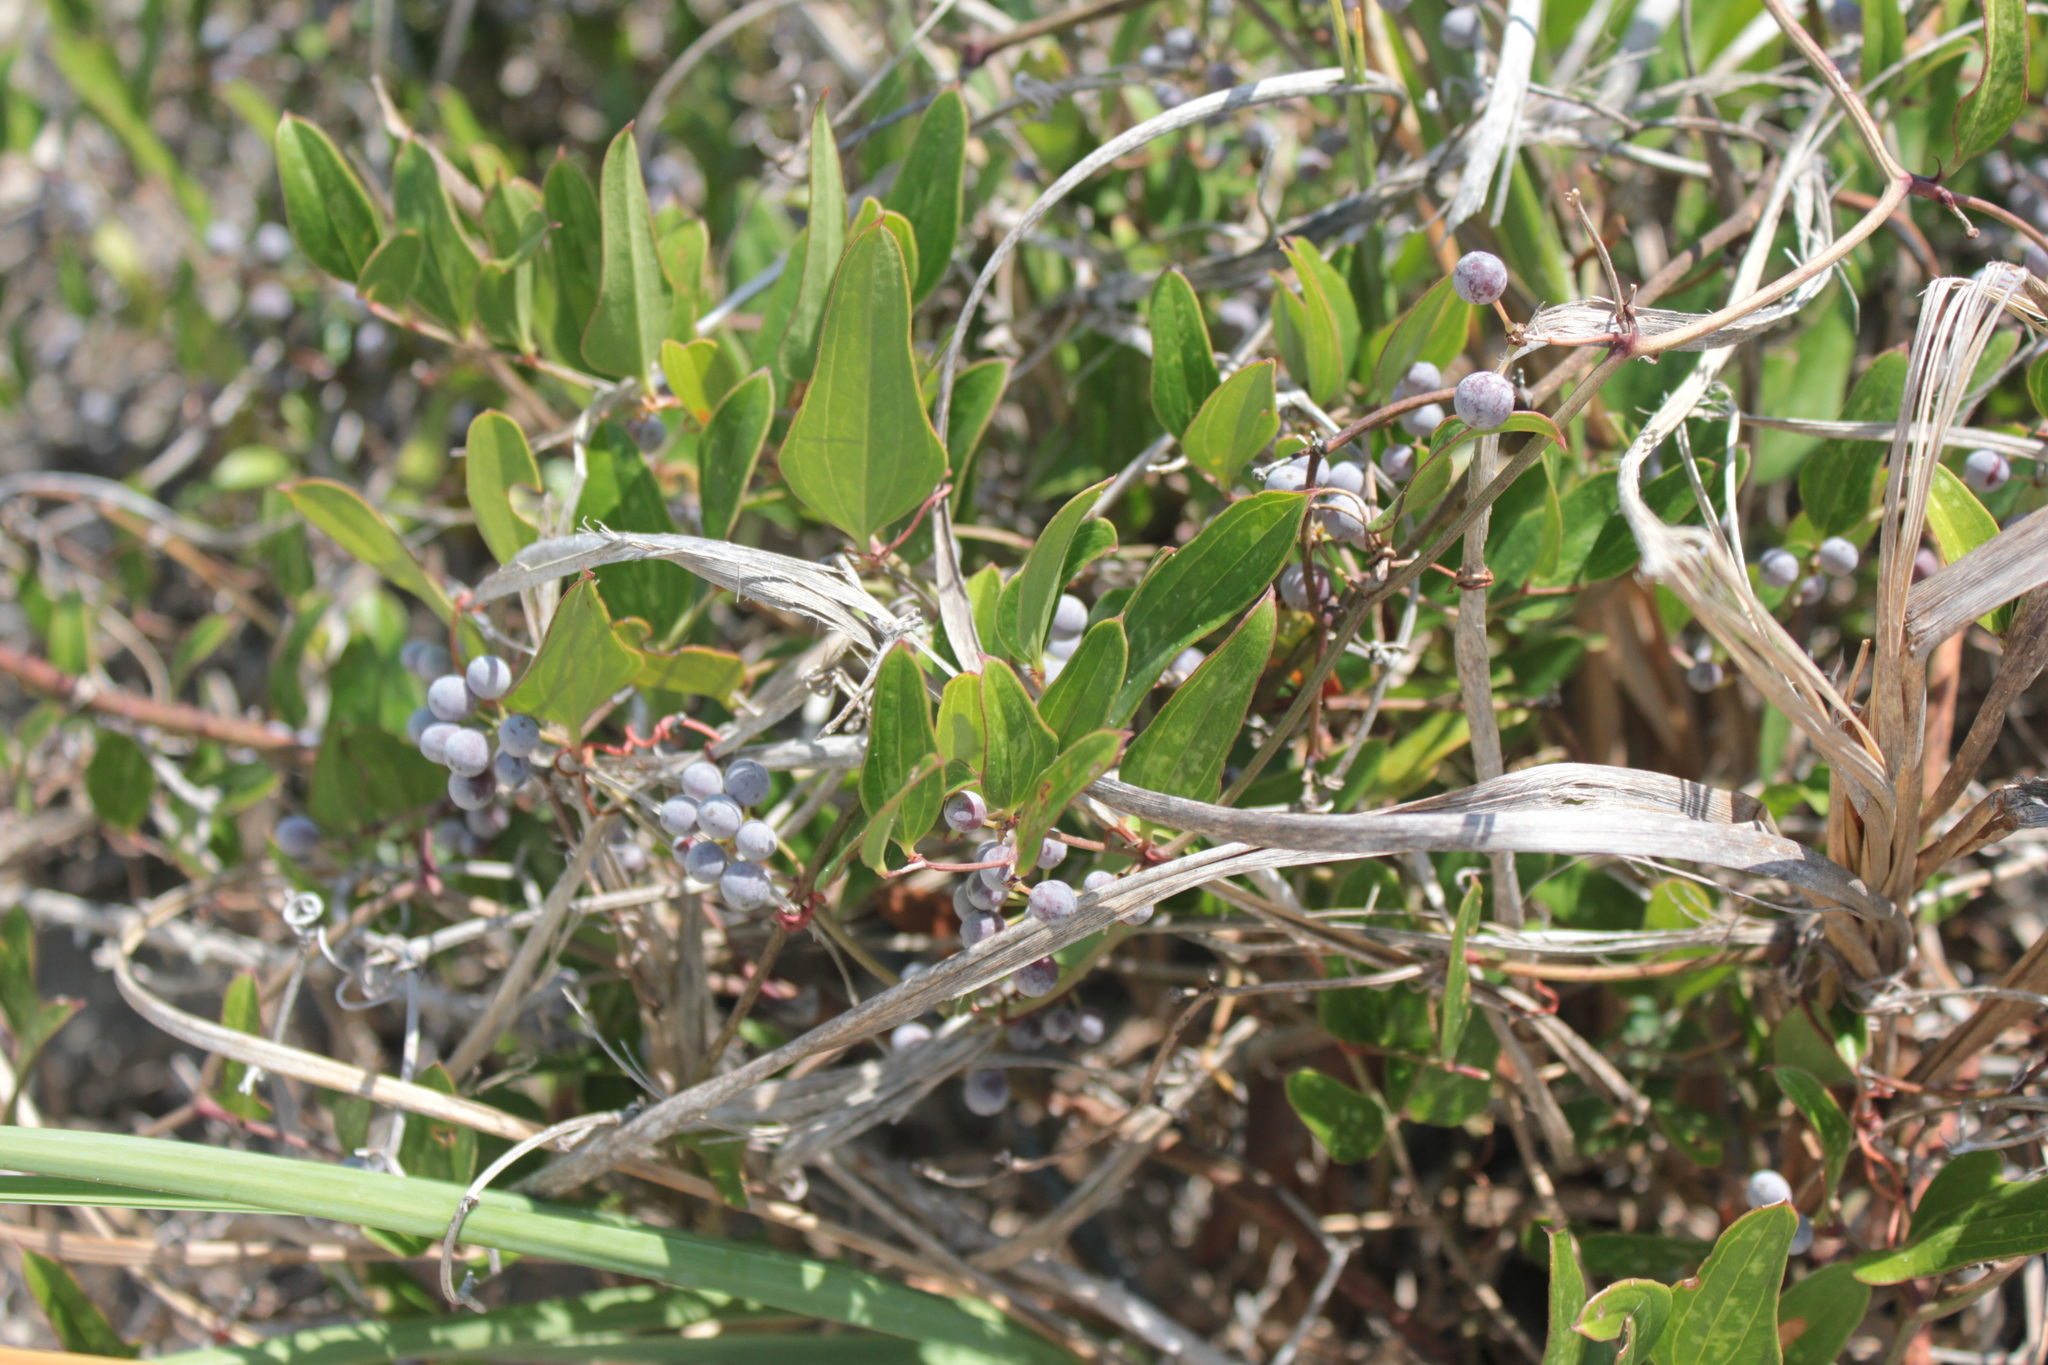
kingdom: Plantae
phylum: Tracheophyta
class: Liliopsida
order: Liliales
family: Smilacaceae
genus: Smilax
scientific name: Smilax auriculata
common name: Wild bamboo
